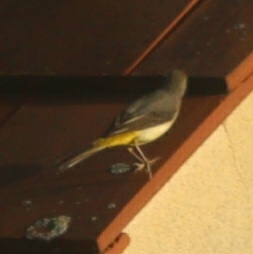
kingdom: Animalia
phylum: Chordata
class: Aves
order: Passeriformes
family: Motacillidae
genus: Motacilla
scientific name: Motacilla cinerea
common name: Grey wagtail
